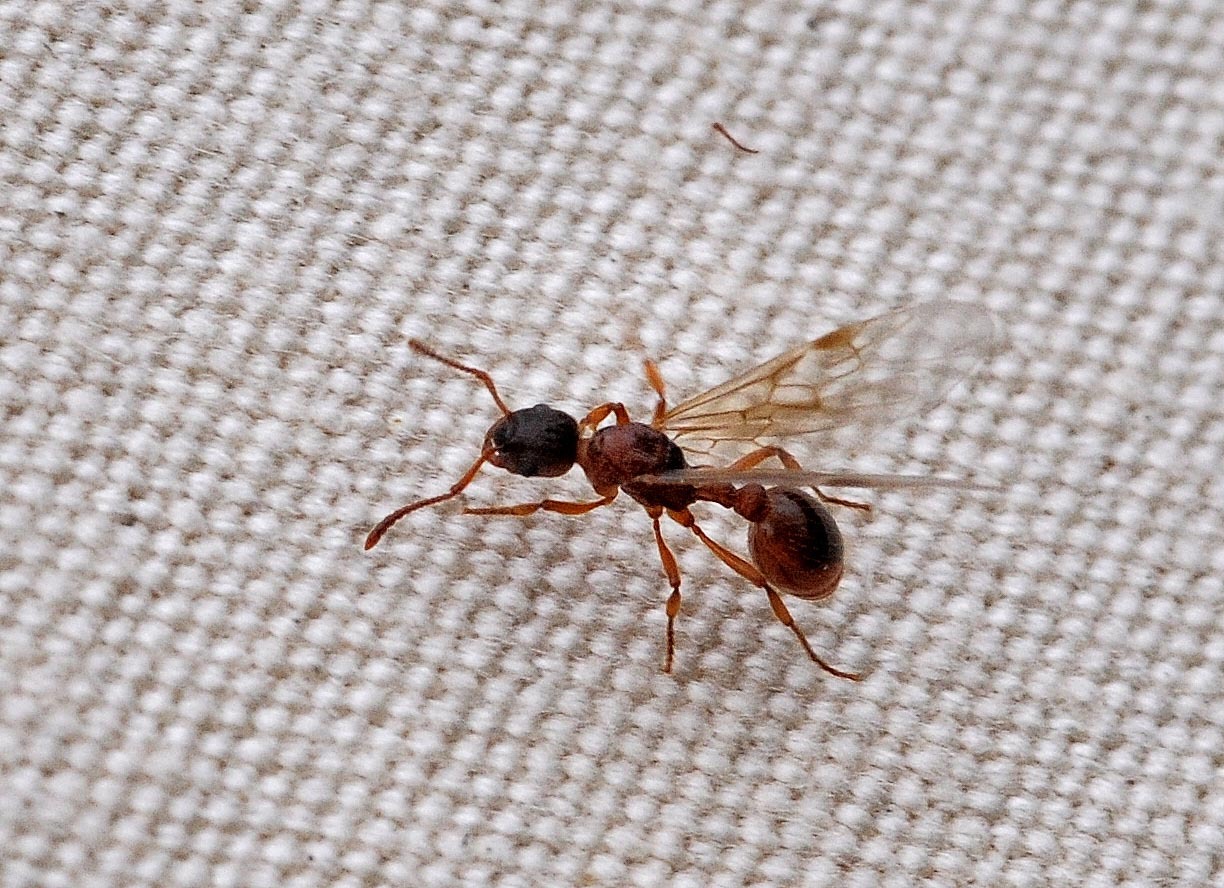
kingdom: Animalia
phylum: Arthropoda
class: Insecta
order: Hymenoptera
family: Formicidae
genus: Myrmica
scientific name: Myrmica ruginodis
